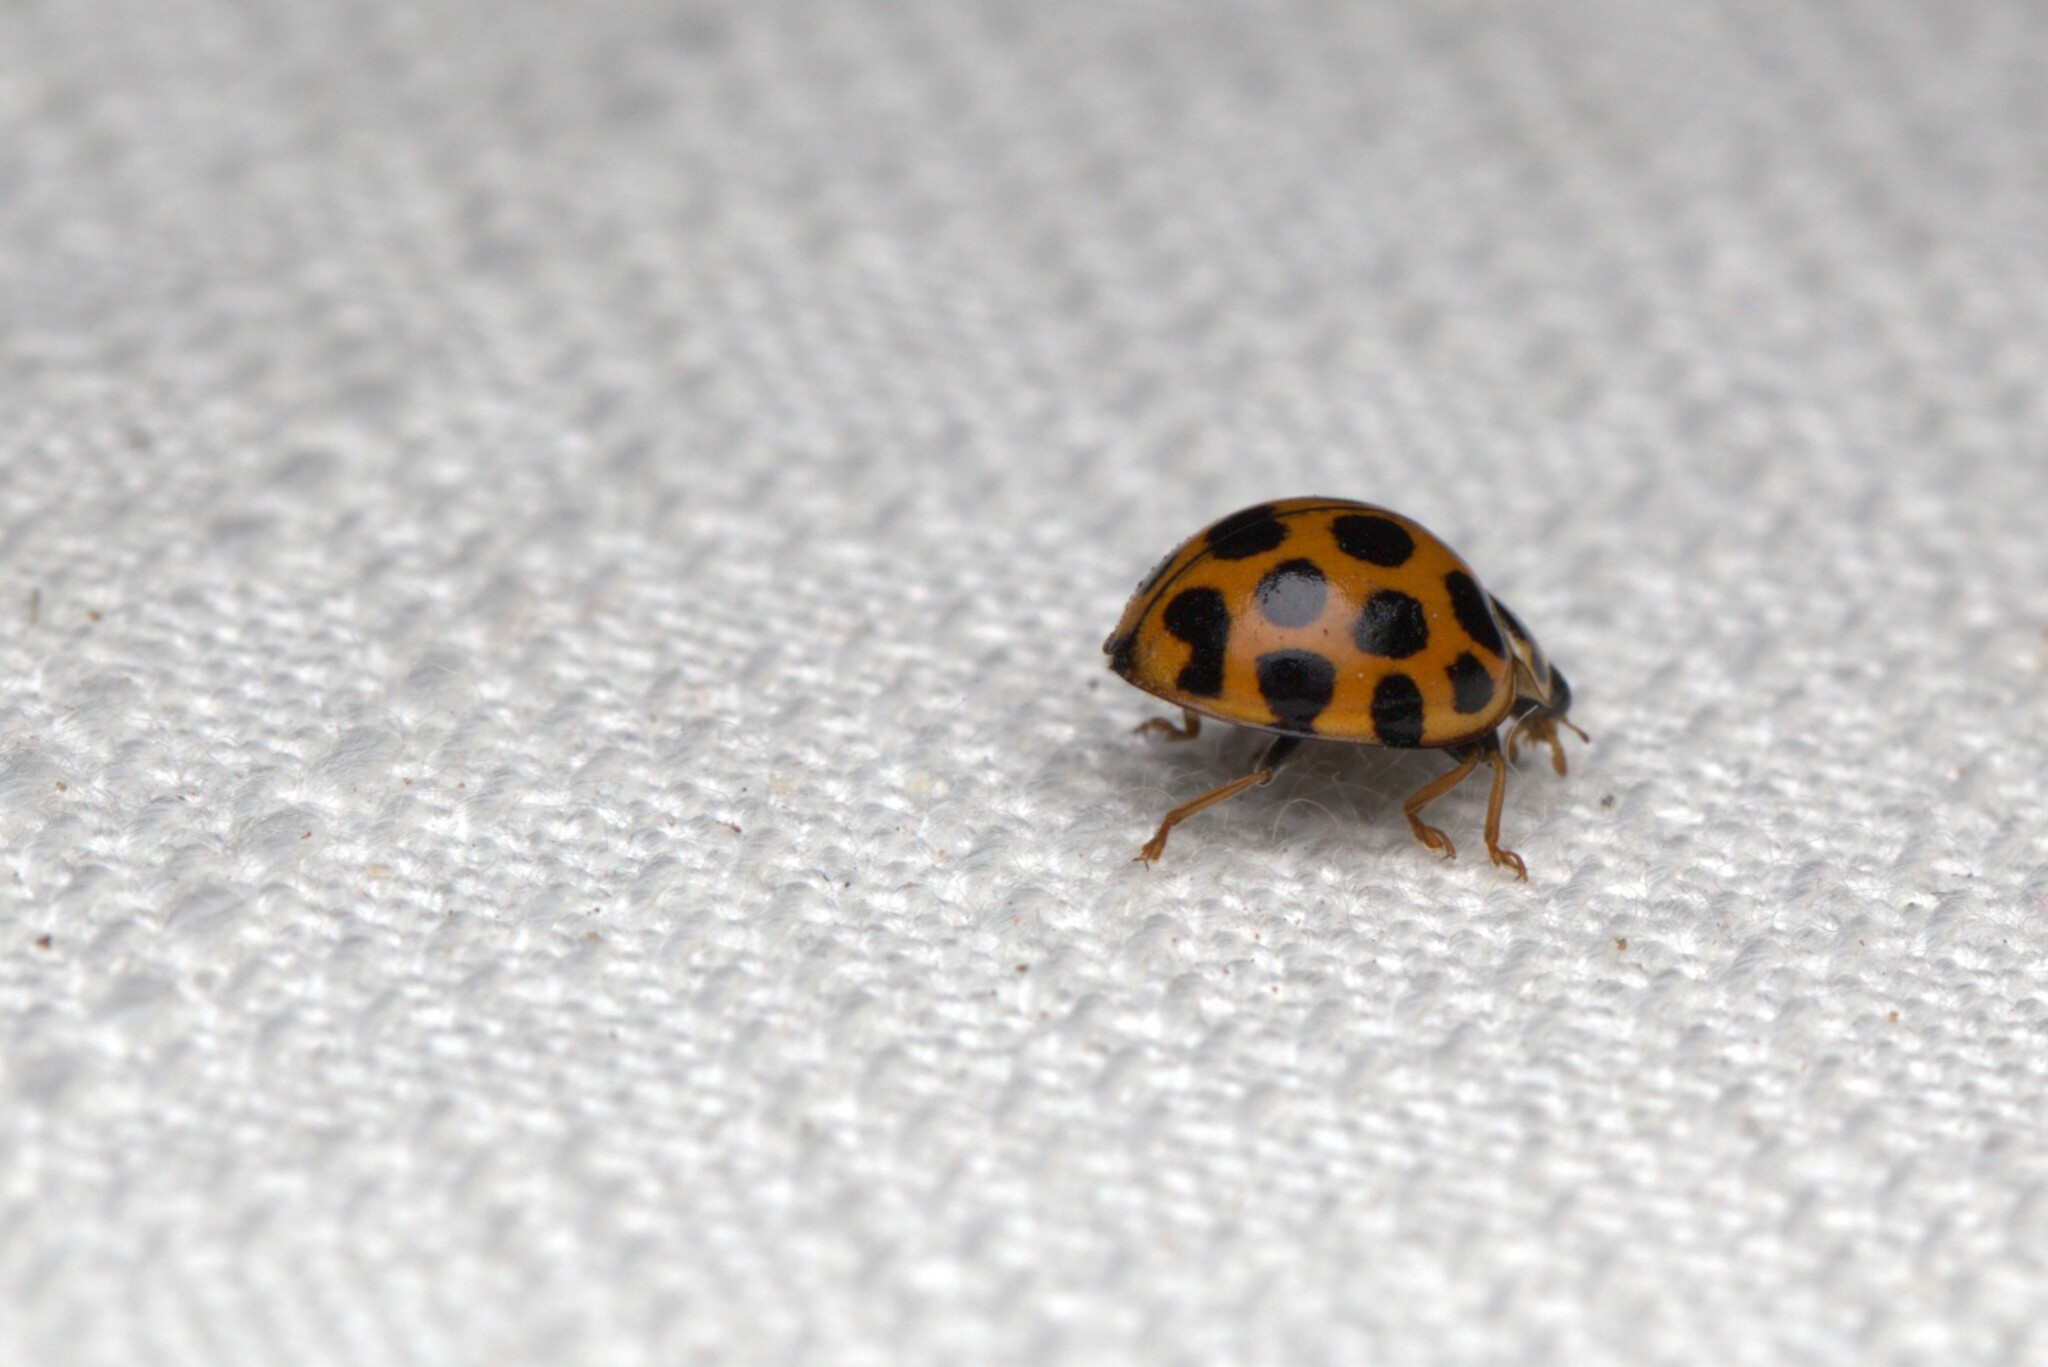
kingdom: Animalia
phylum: Arthropoda
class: Insecta
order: Coleoptera
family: Coccinellidae
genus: Harmonia
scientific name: Harmonia conformis
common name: Common spotted ladybird beetle
